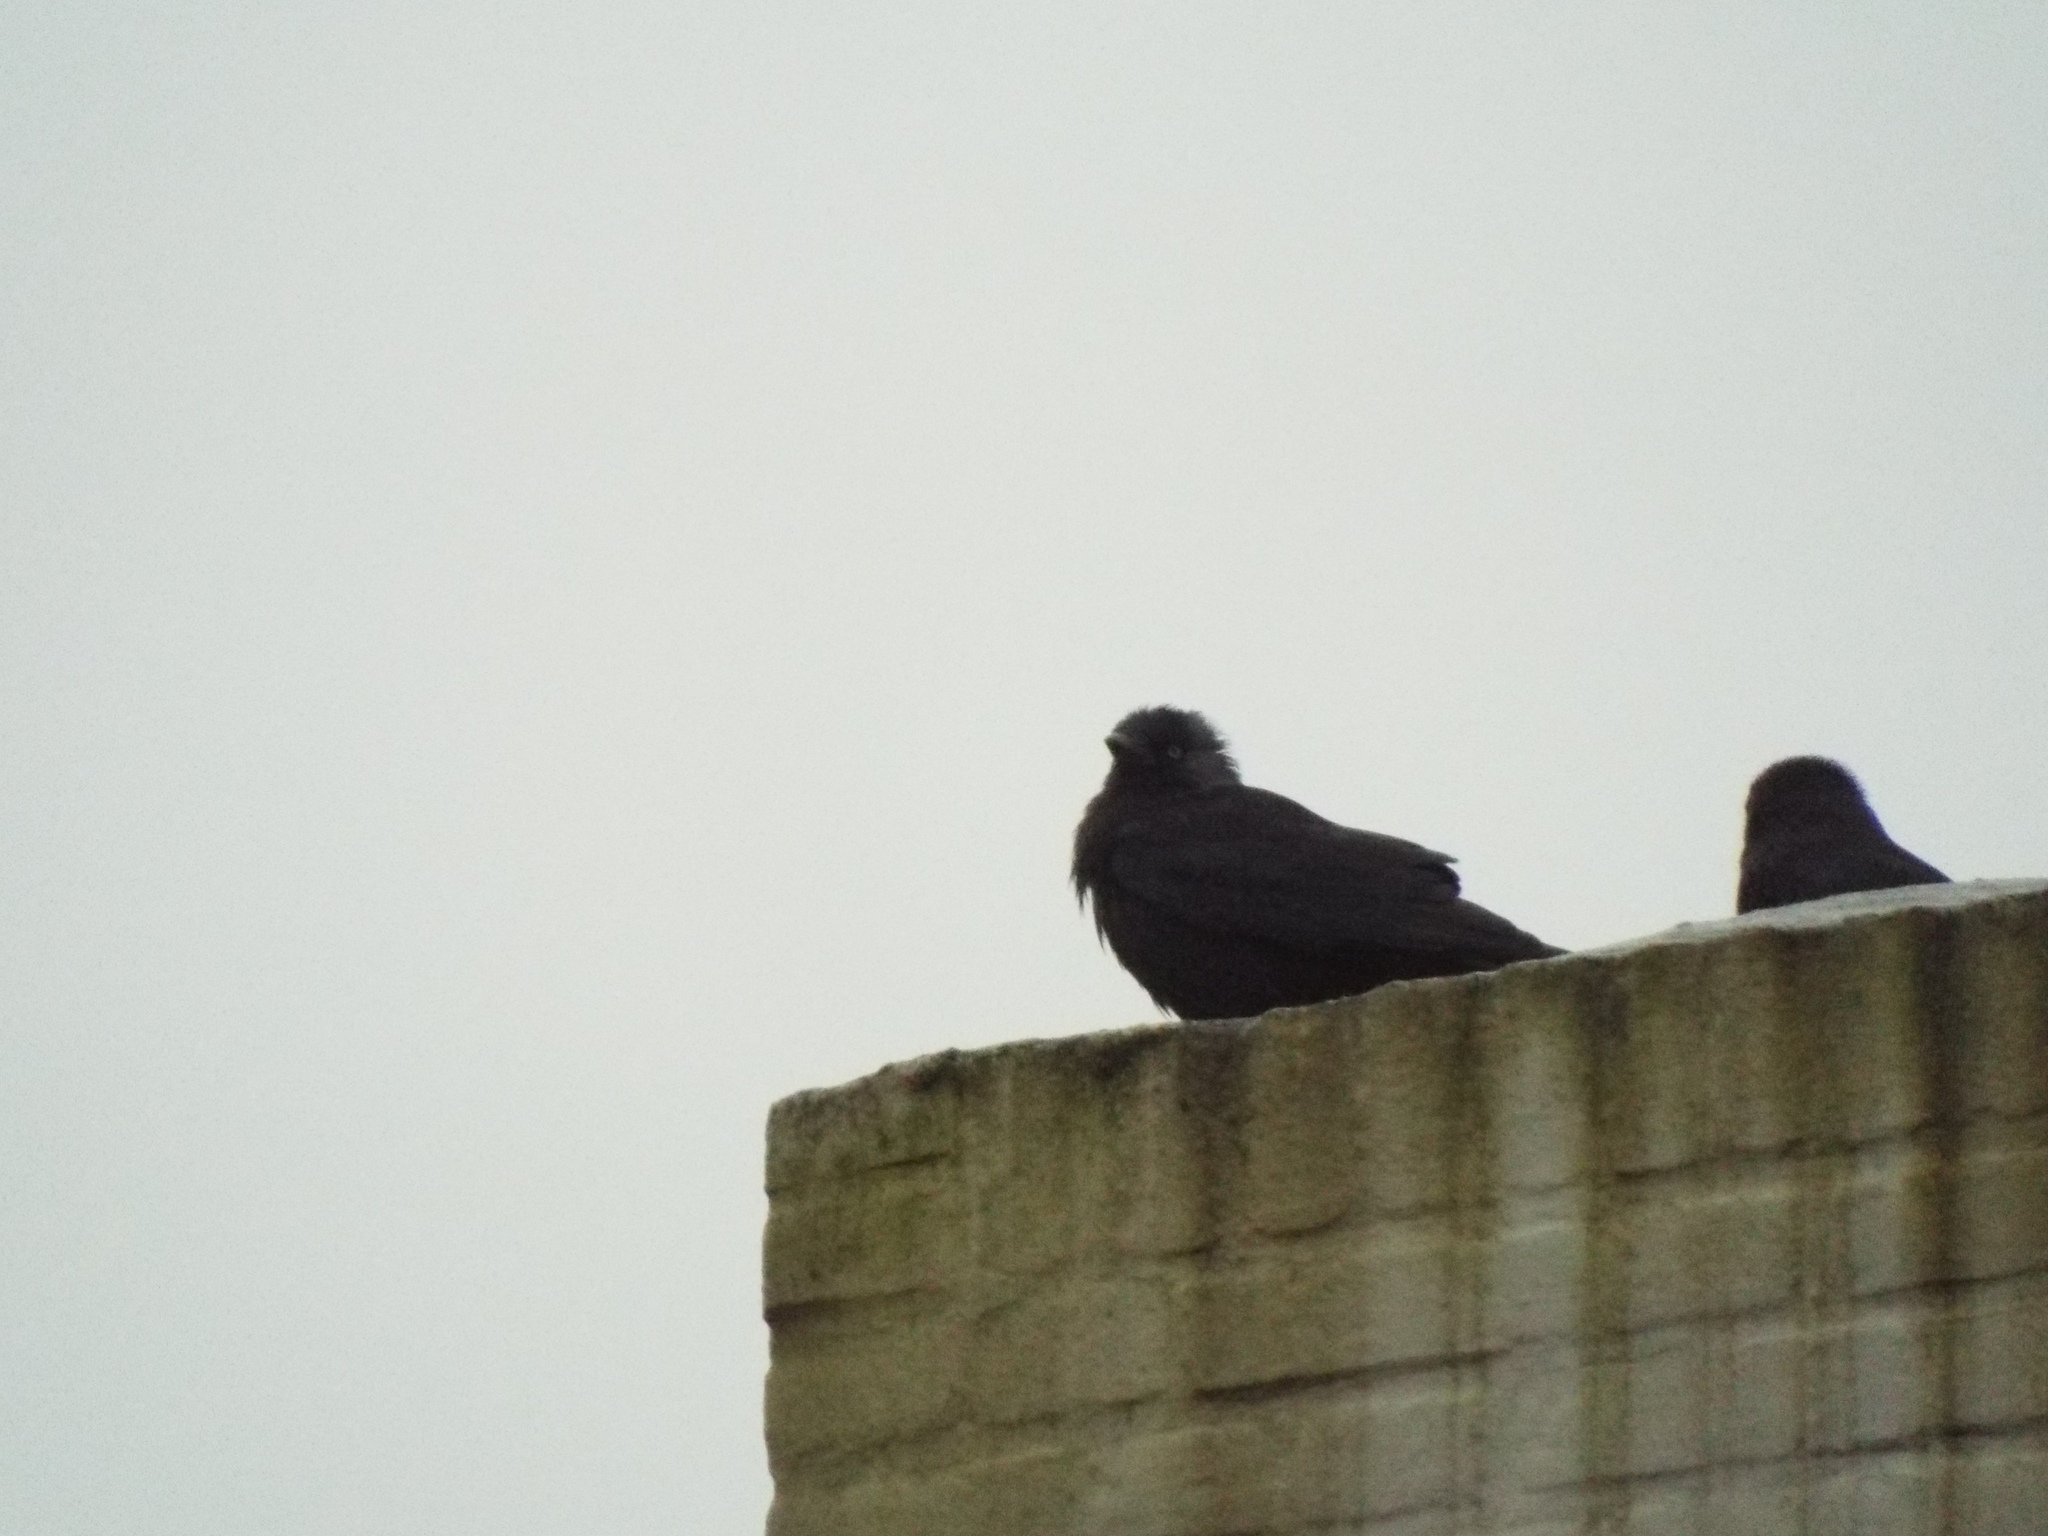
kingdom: Animalia
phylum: Chordata
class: Aves
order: Passeriformes
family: Corvidae
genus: Coloeus
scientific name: Coloeus monedula
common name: Western jackdaw
